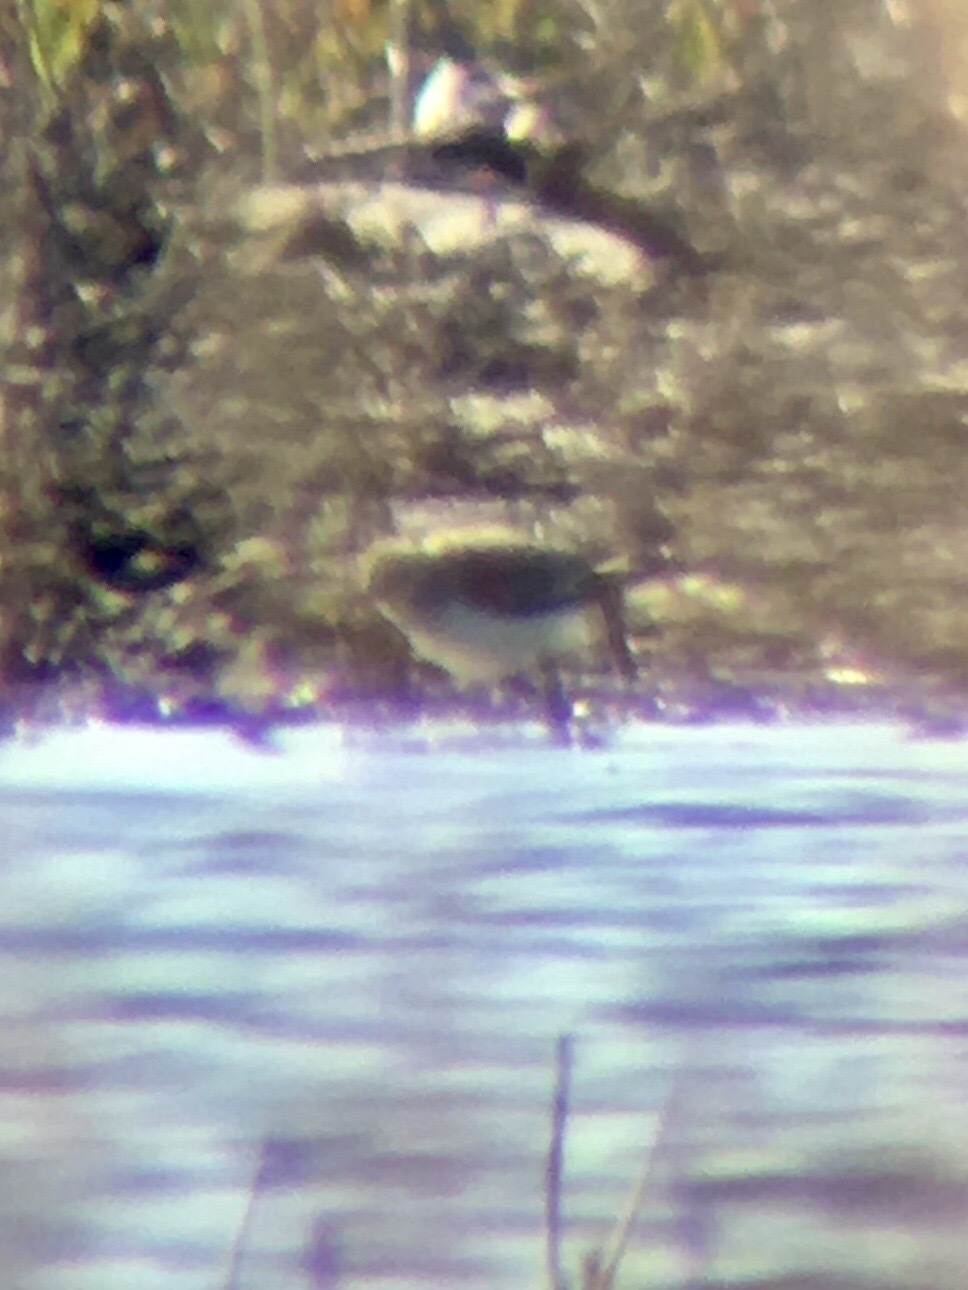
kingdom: Animalia
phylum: Chordata
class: Aves
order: Charadriiformes
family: Scolopacidae
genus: Calidris
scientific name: Calidris alba
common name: Sanderling
